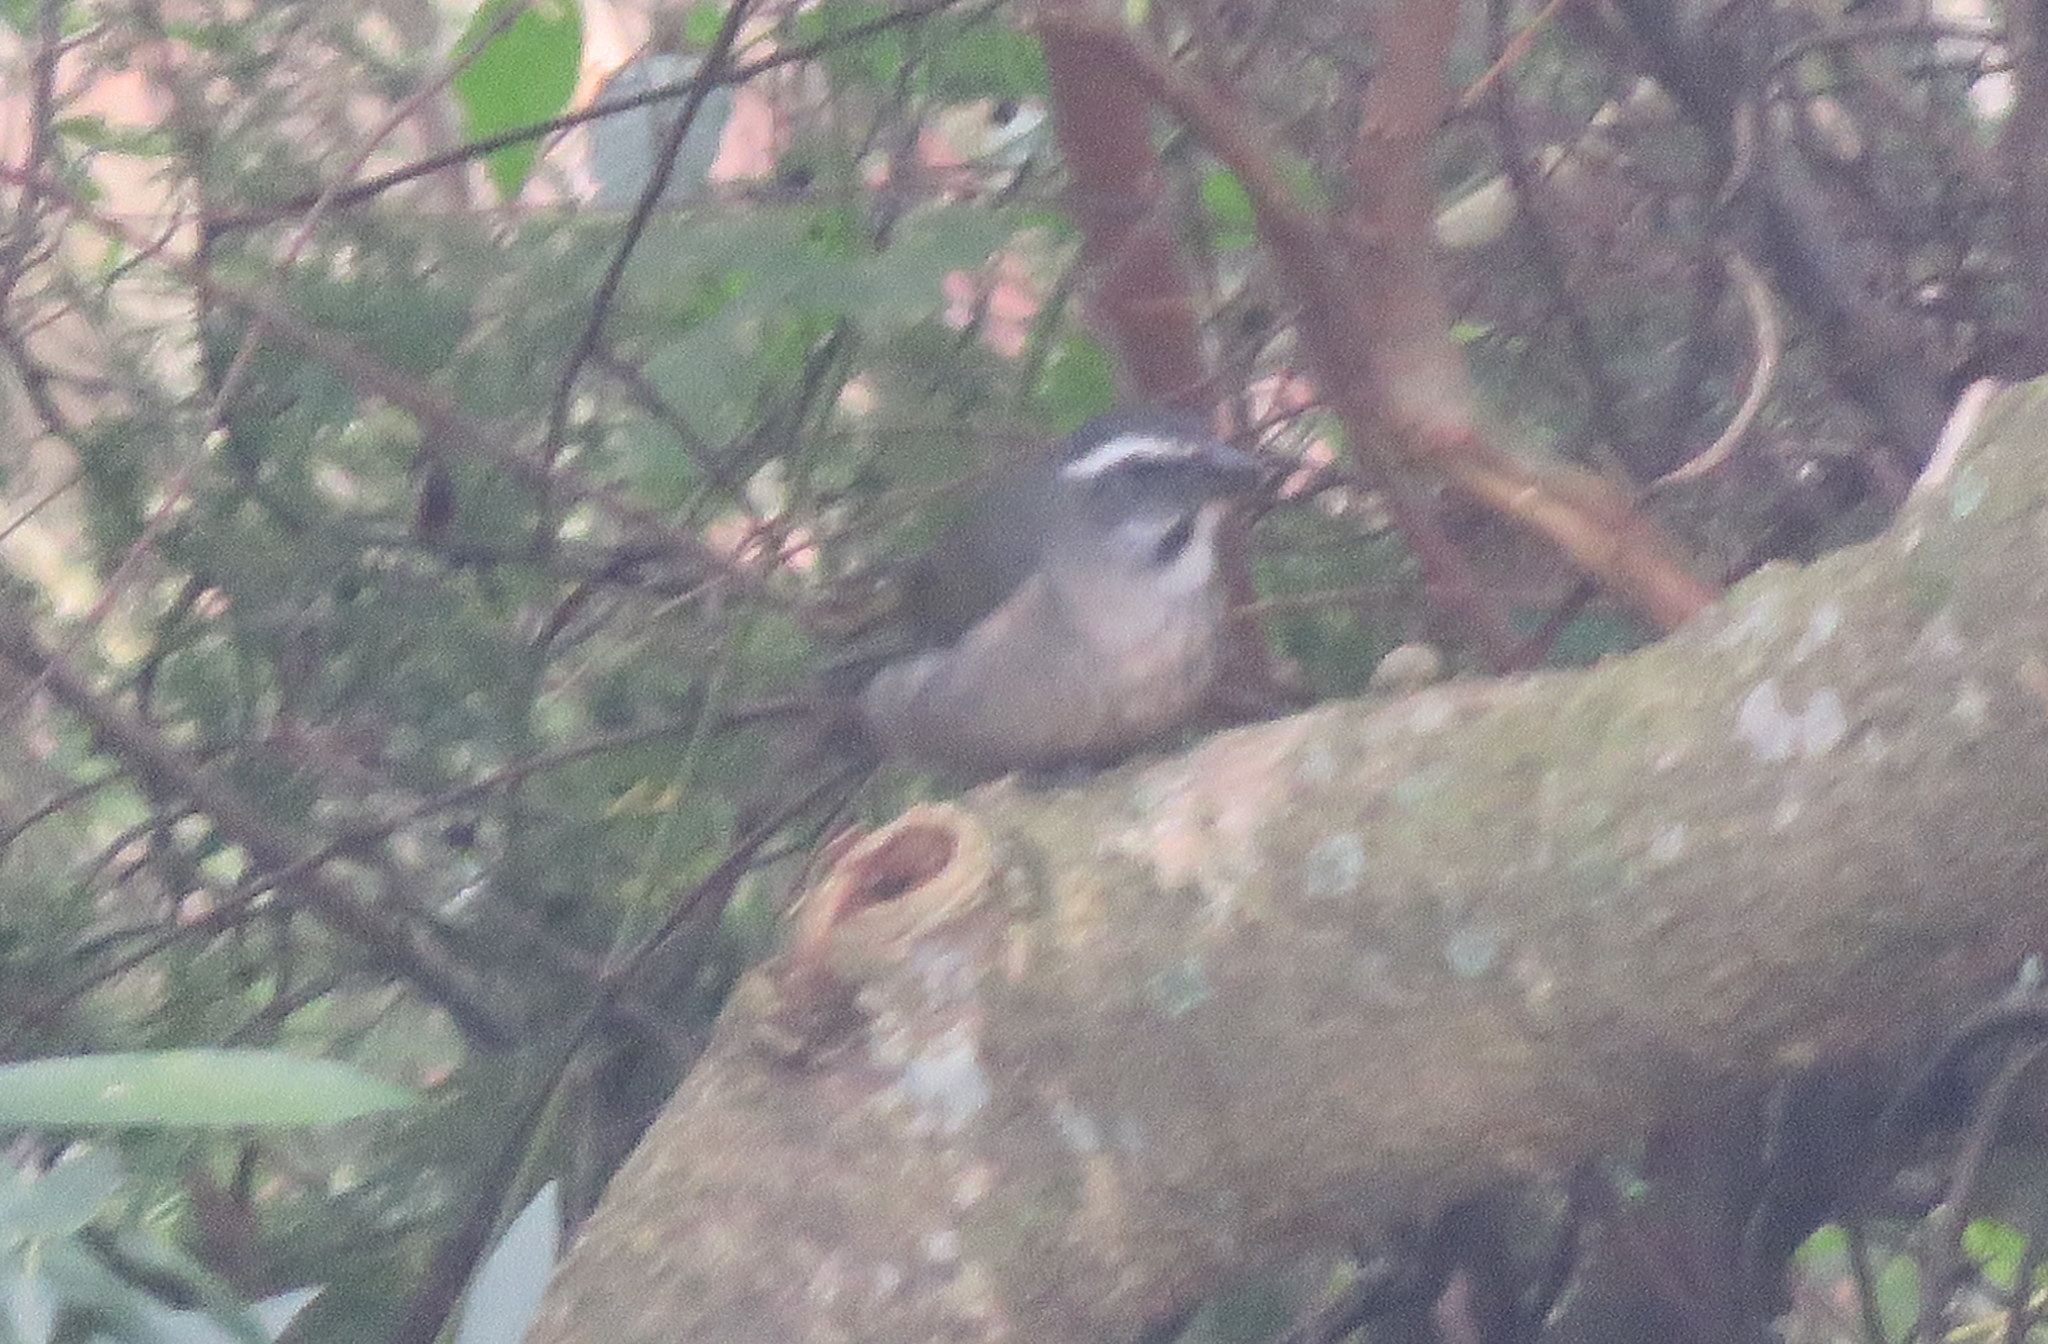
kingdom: Animalia
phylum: Chordata
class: Aves
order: Passeriformes
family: Thraupidae
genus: Saltator
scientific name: Saltator similis
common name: Green-winged saltator
